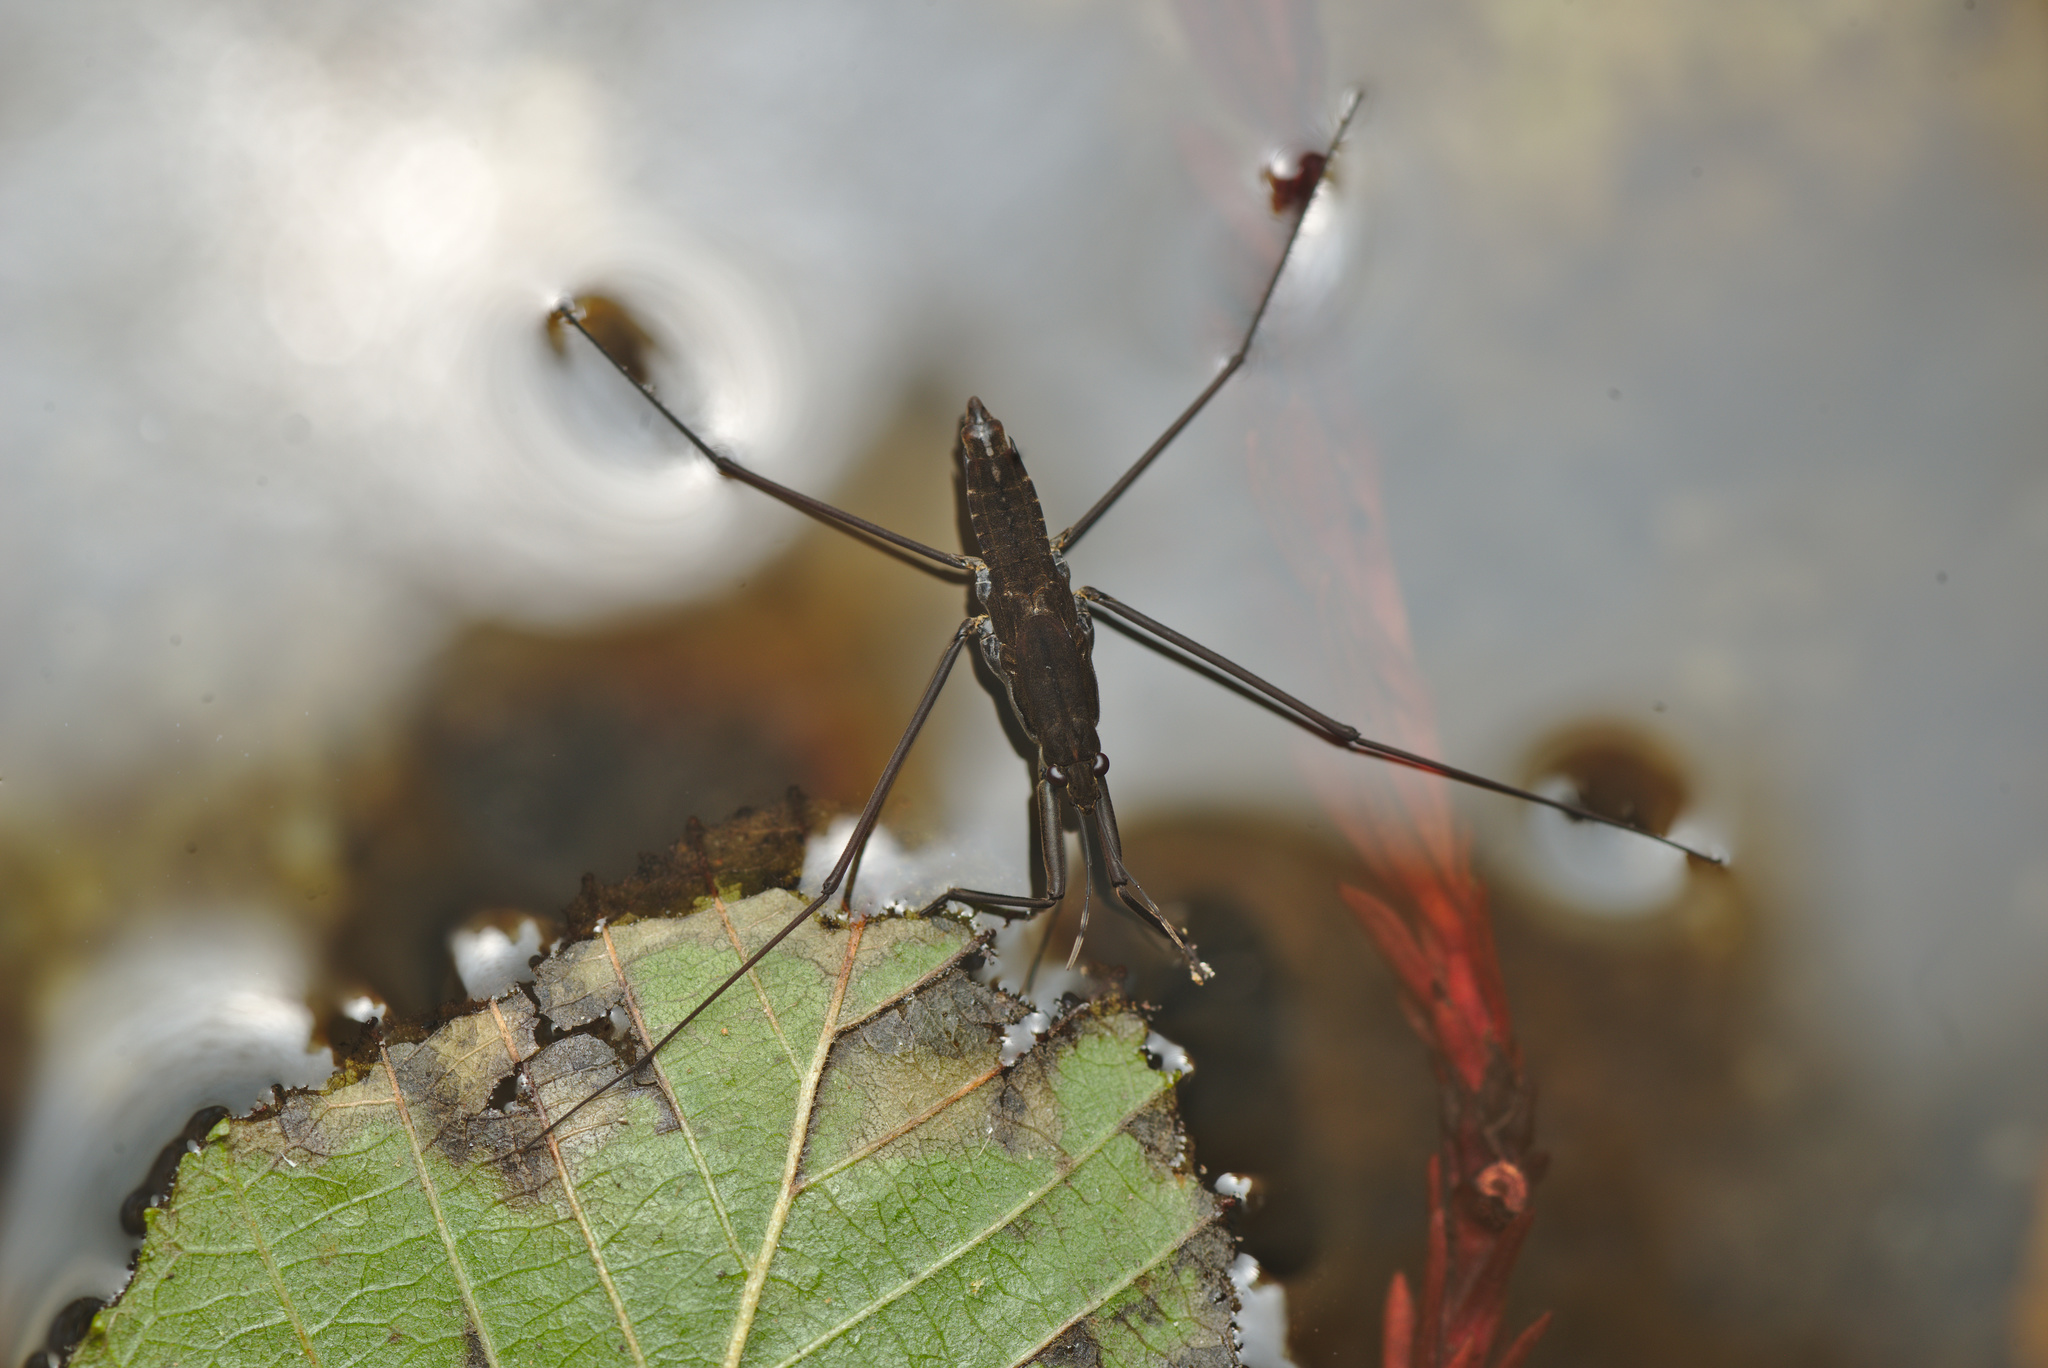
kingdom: Animalia
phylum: Arthropoda
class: Insecta
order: Hemiptera
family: Gerridae
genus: Aquarius
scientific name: Aquarius remigis
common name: Common water strider
